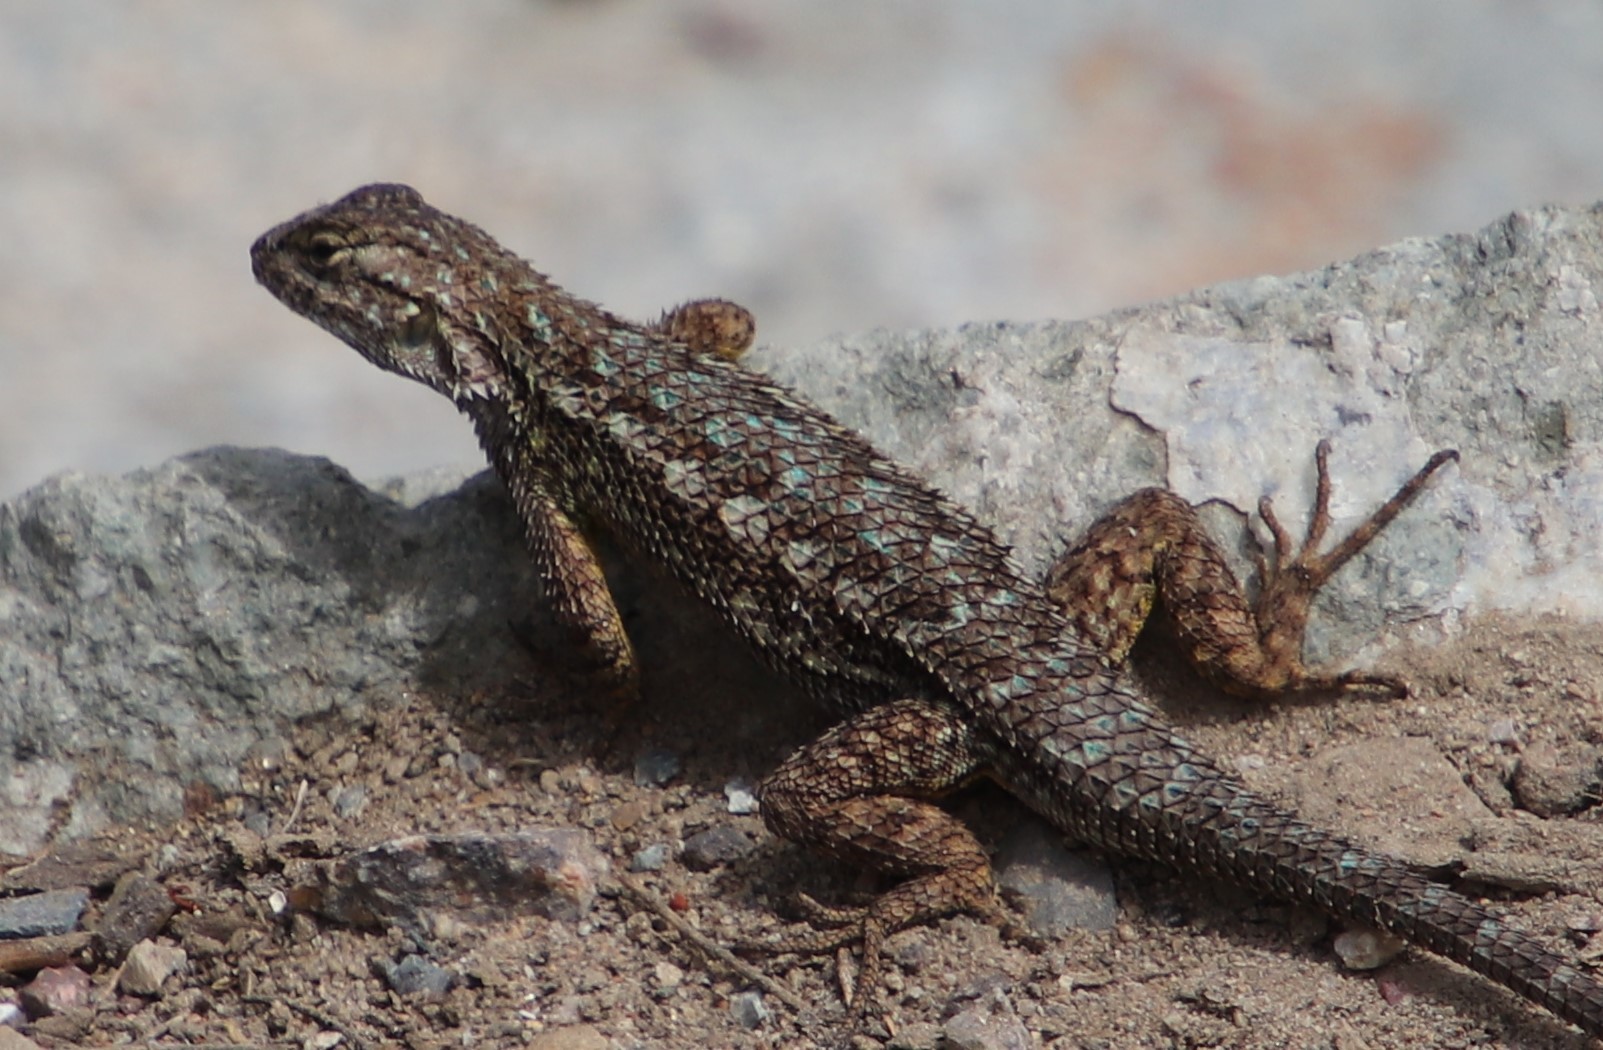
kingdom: Animalia
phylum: Chordata
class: Squamata
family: Phrynosomatidae
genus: Sceloporus
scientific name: Sceloporus occidentalis
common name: Western fence lizard
